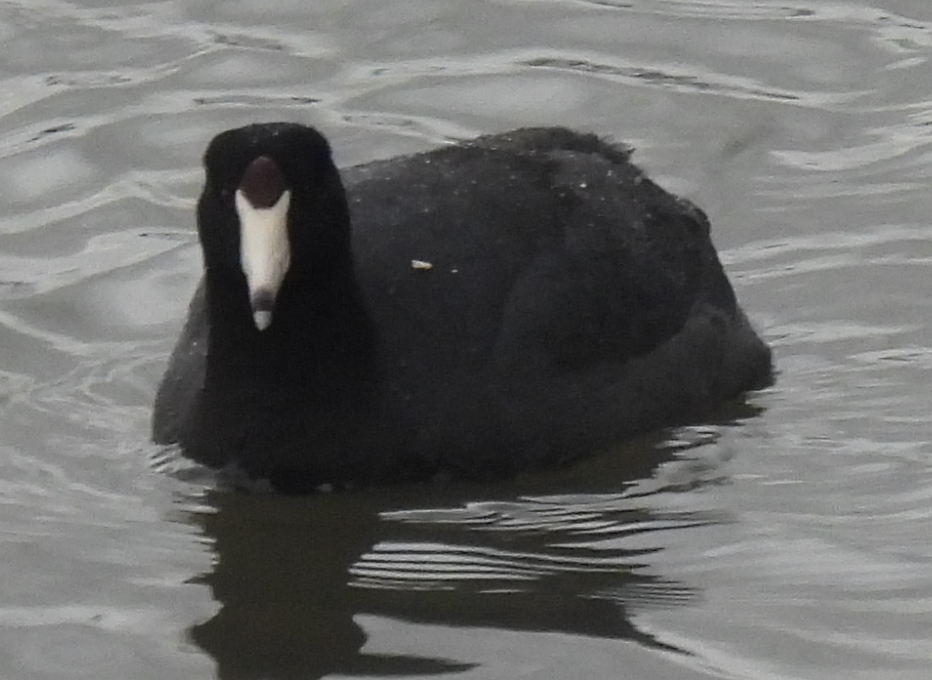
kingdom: Animalia
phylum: Chordata
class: Aves
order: Gruiformes
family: Rallidae
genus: Fulica
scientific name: Fulica americana
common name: American coot
